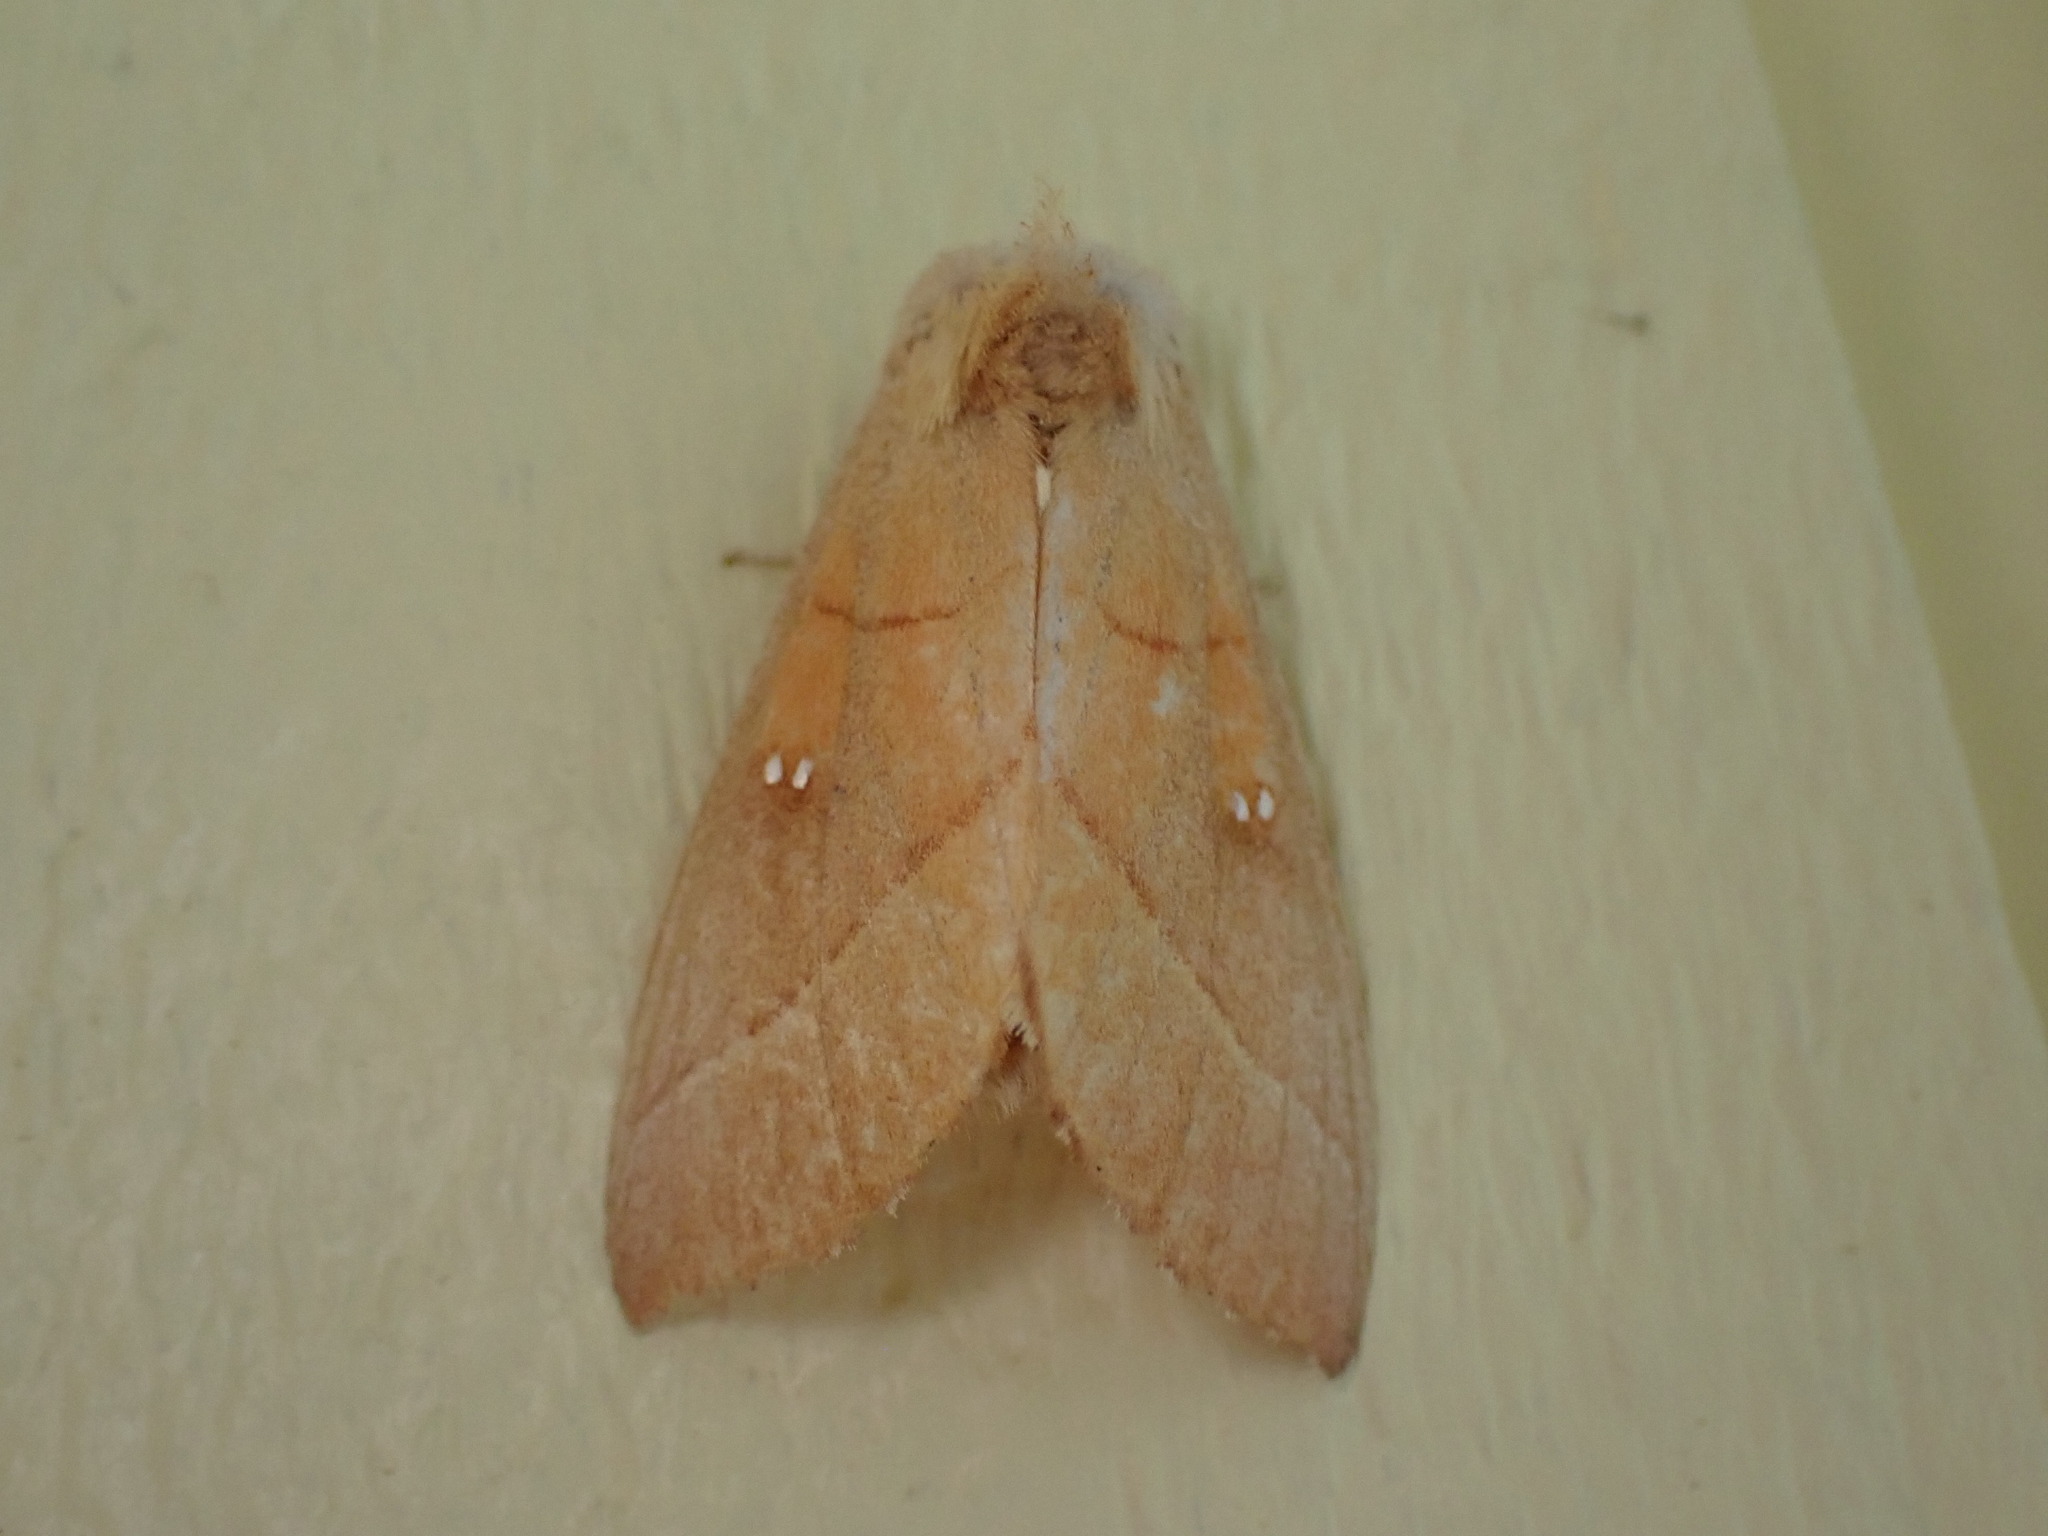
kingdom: Animalia
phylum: Arthropoda
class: Insecta
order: Lepidoptera
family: Notodontidae
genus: Nadata
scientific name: Nadata gibbosa
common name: White-dotted prominent
